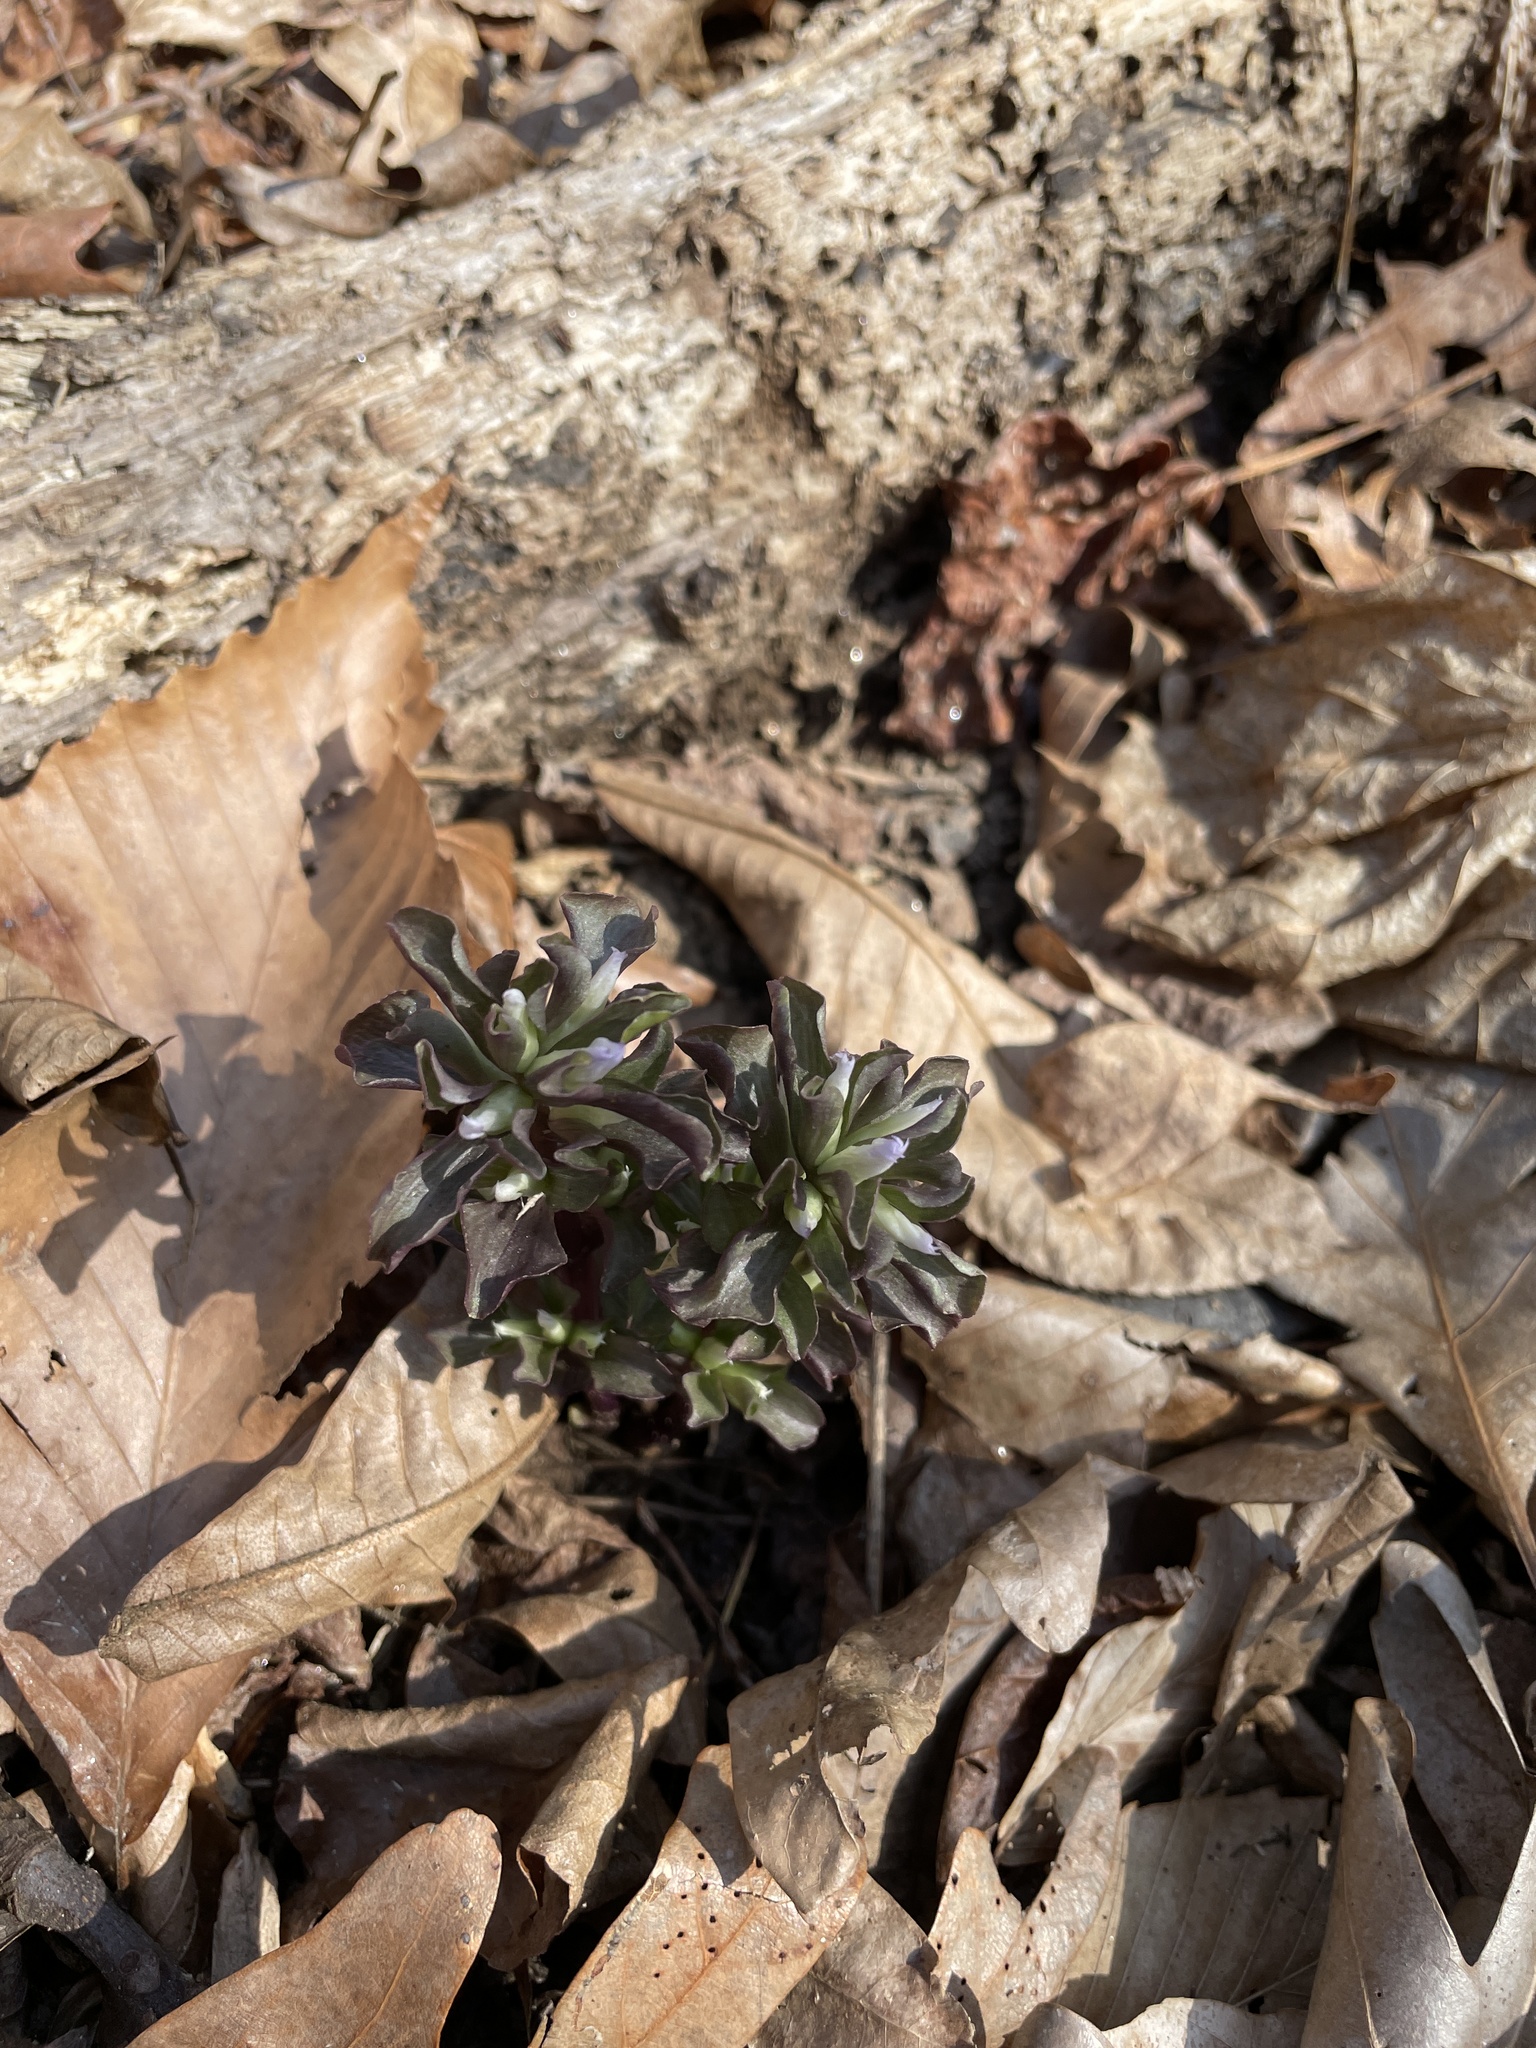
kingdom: Plantae
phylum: Tracheophyta
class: Magnoliopsida
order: Gentianales
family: Gentianaceae
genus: Obolaria
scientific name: Obolaria virginica
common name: Pennywort
